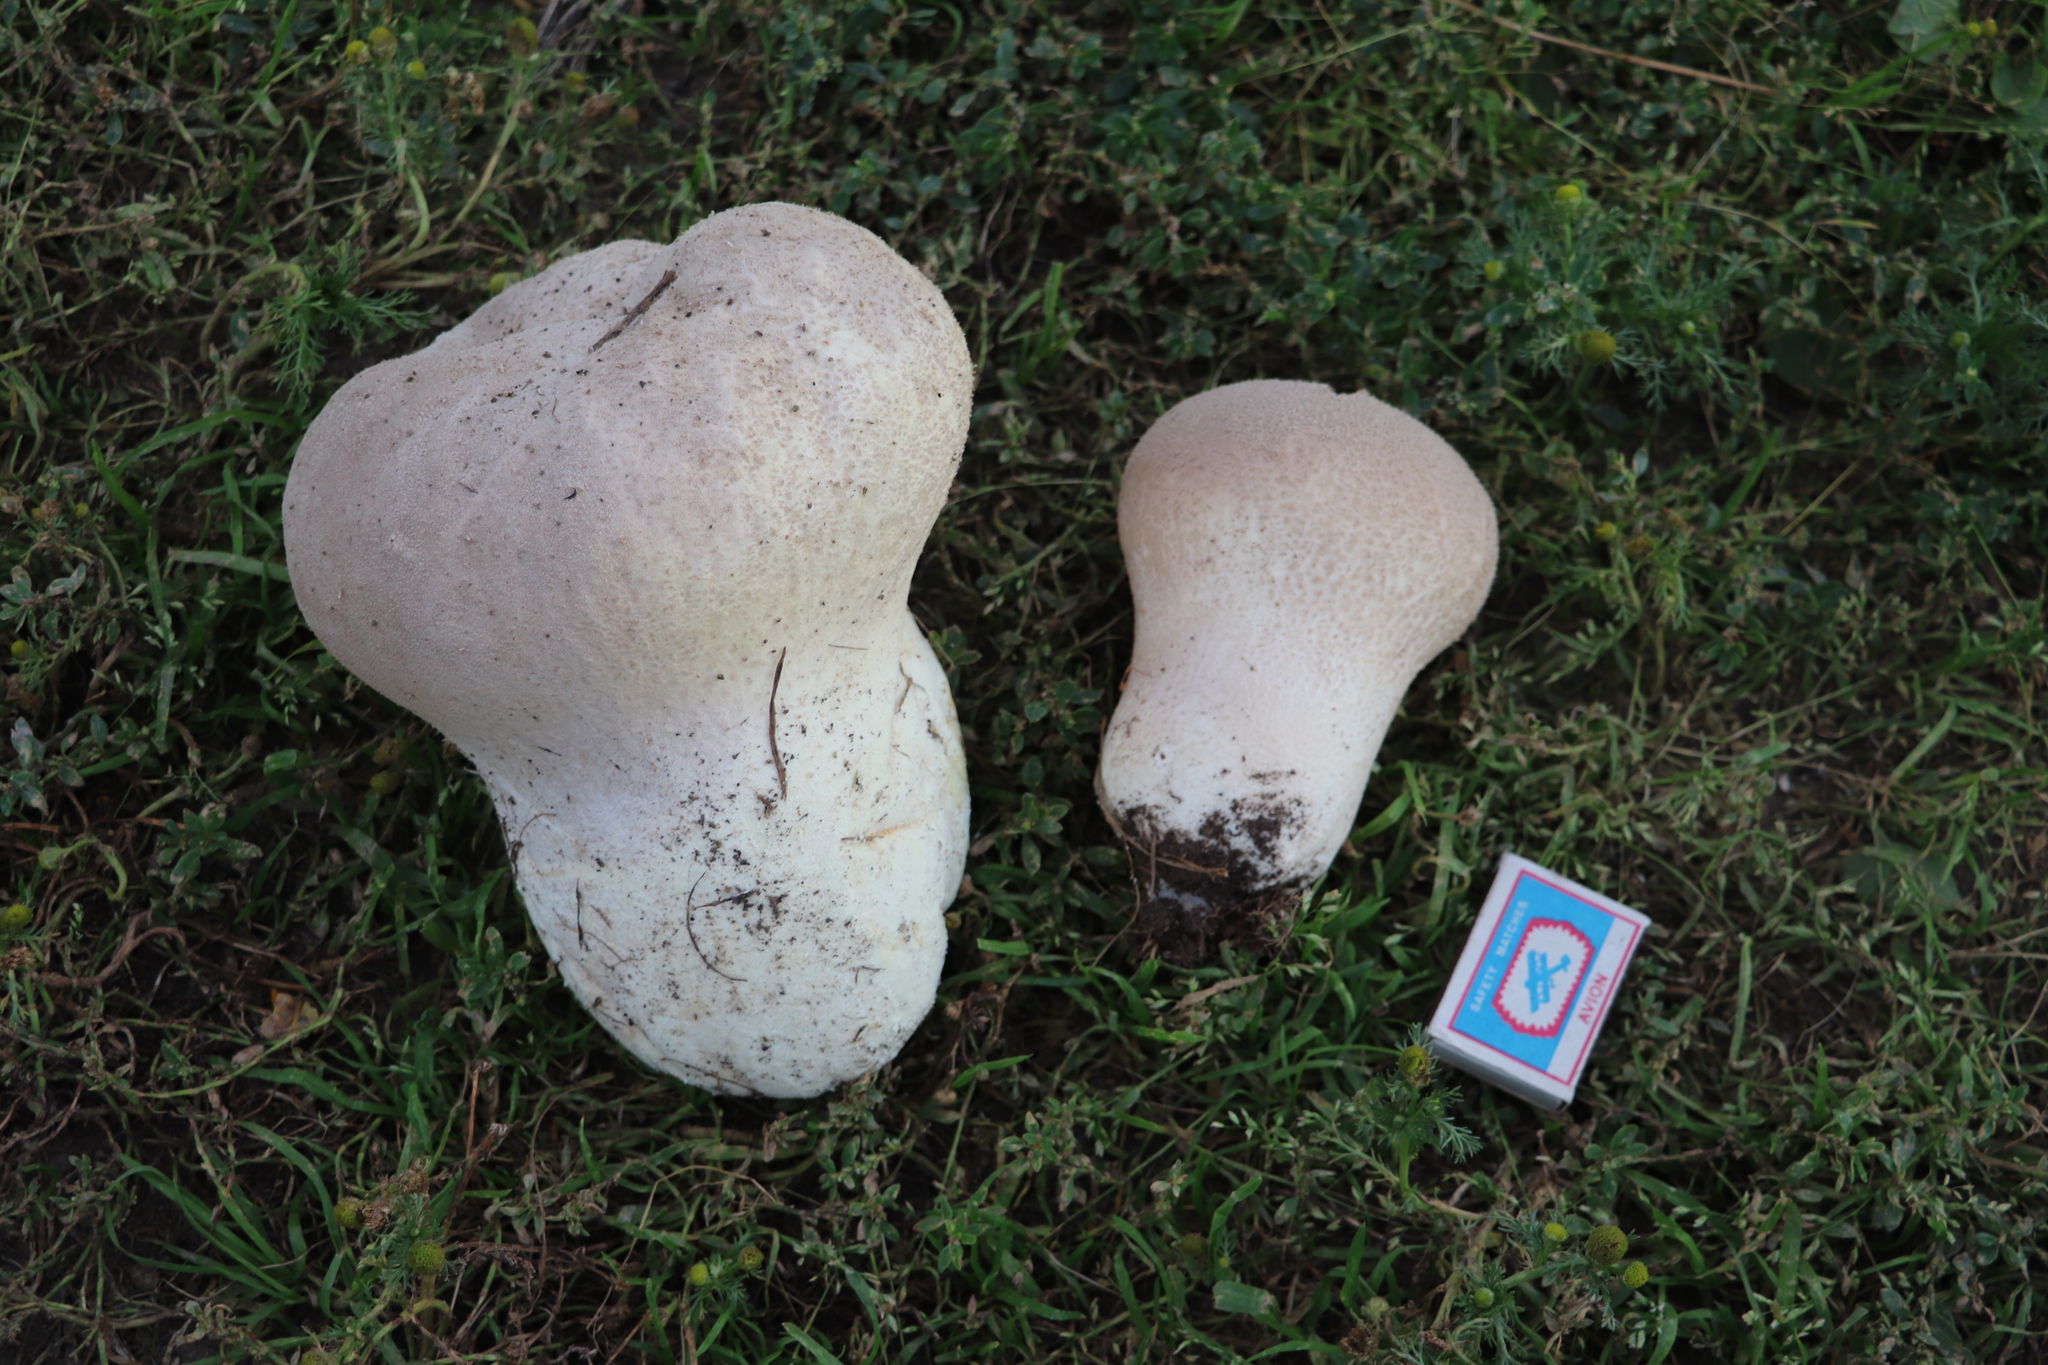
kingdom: Fungi
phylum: Basidiomycota
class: Agaricomycetes
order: Agaricales
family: Lycoperdaceae
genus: Bovistella
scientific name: Bovistella utriformis
